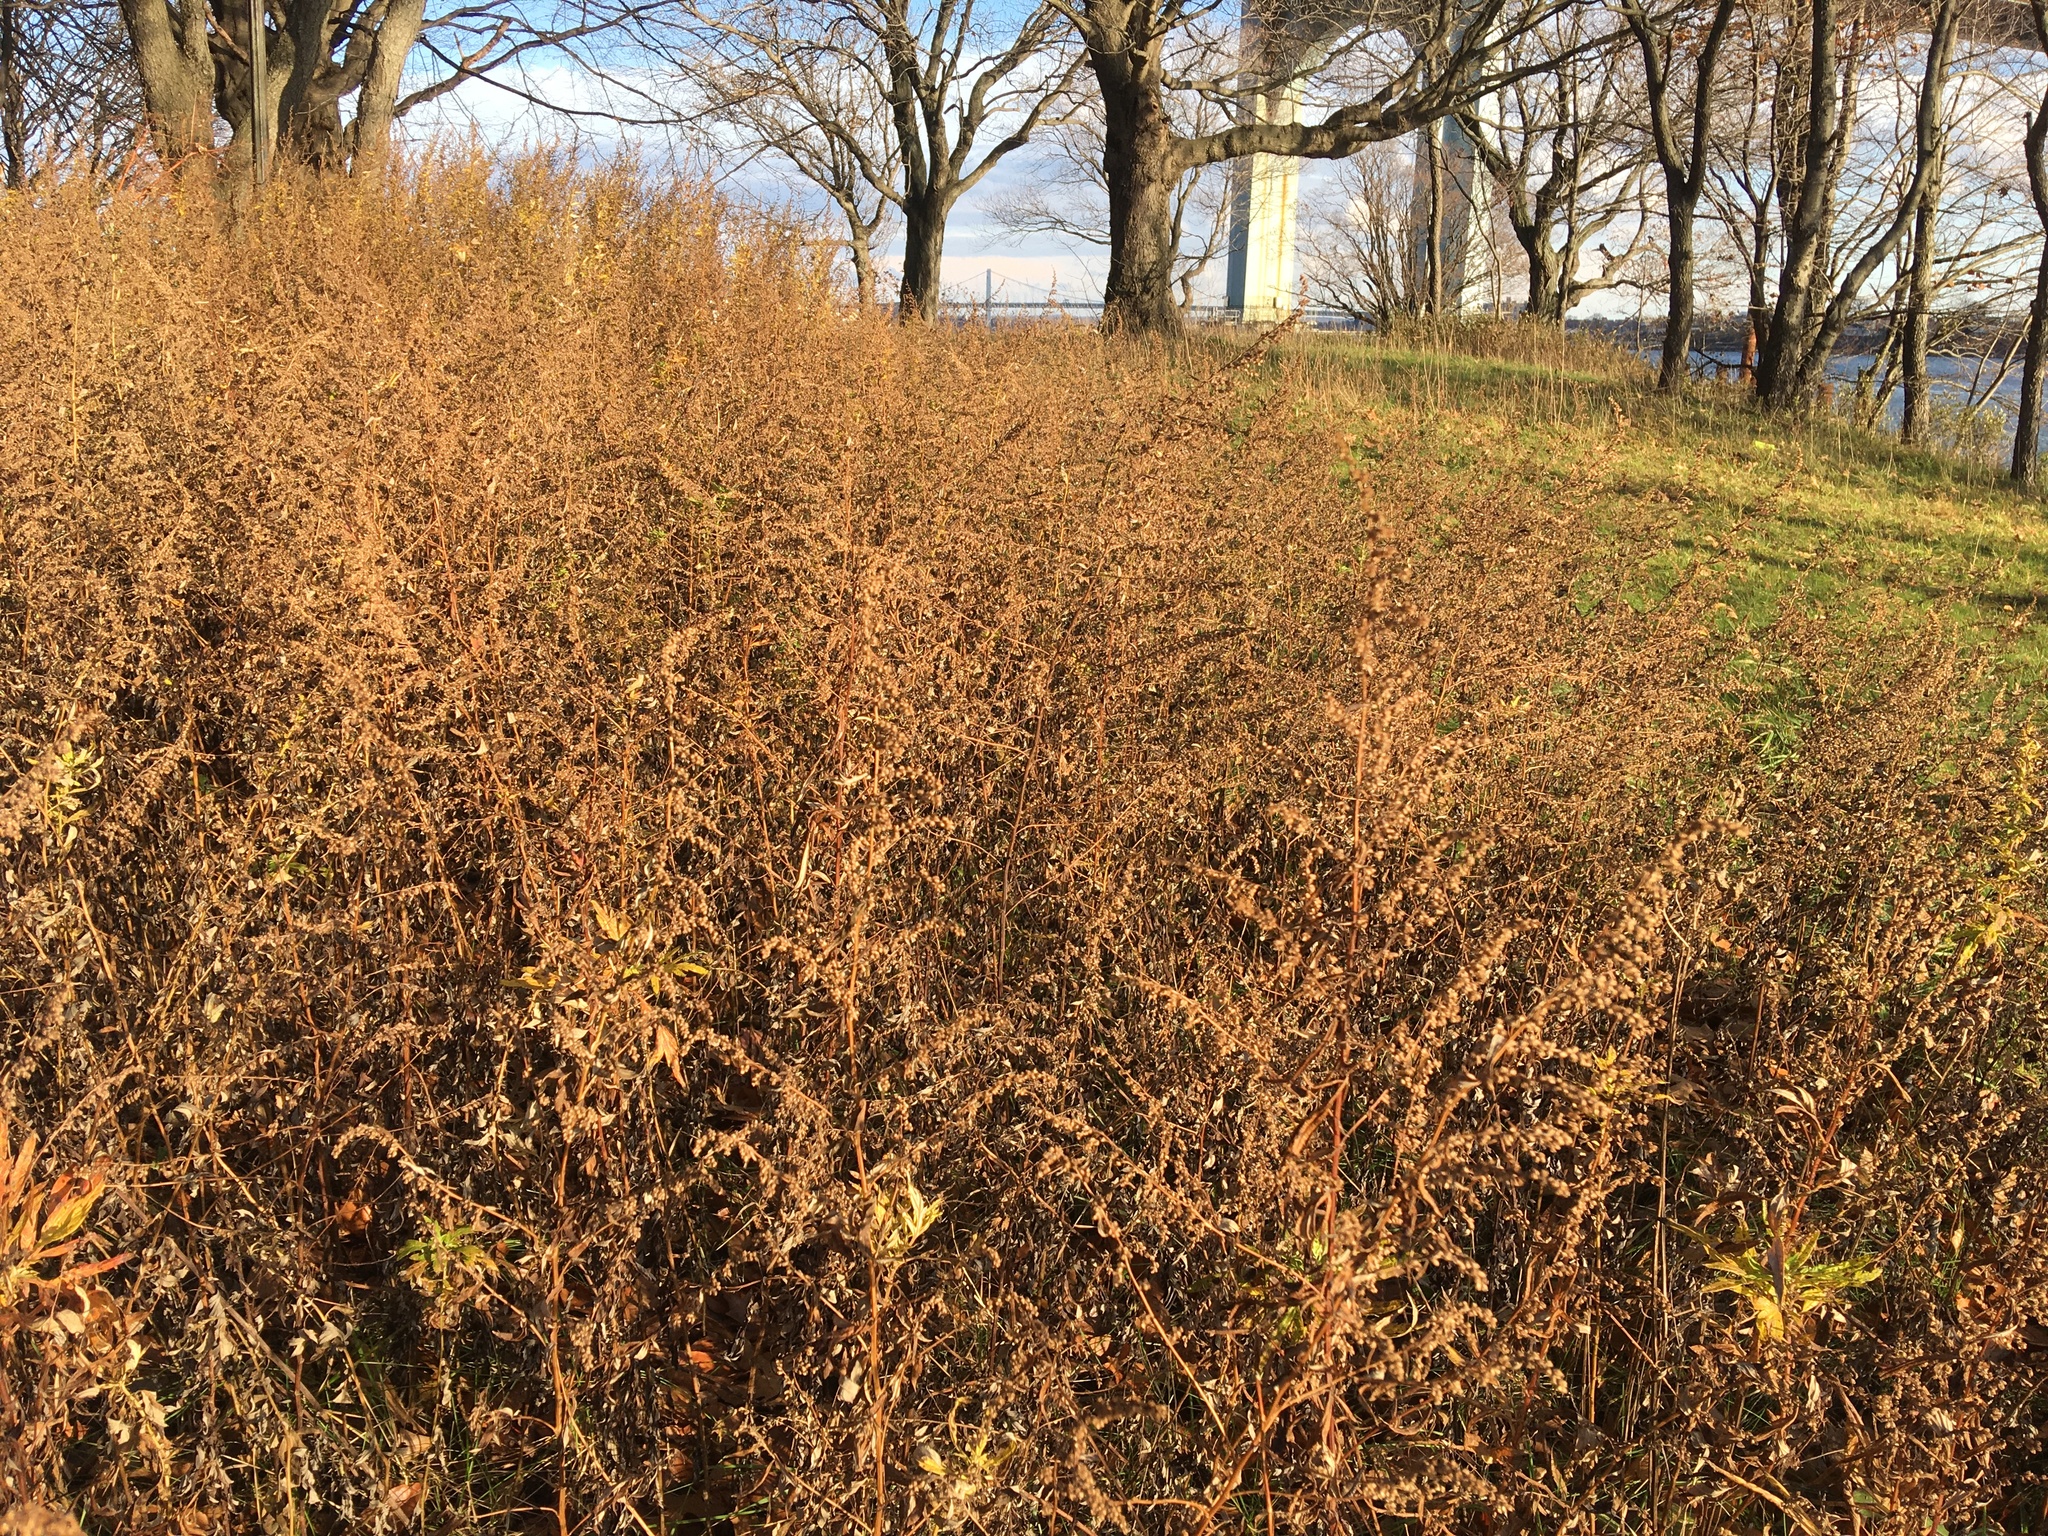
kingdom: Plantae
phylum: Tracheophyta
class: Magnoliopsida
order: Asterales
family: Asteraceae
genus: Artemisia
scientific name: Artemisia vulgaris
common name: Mugwort
